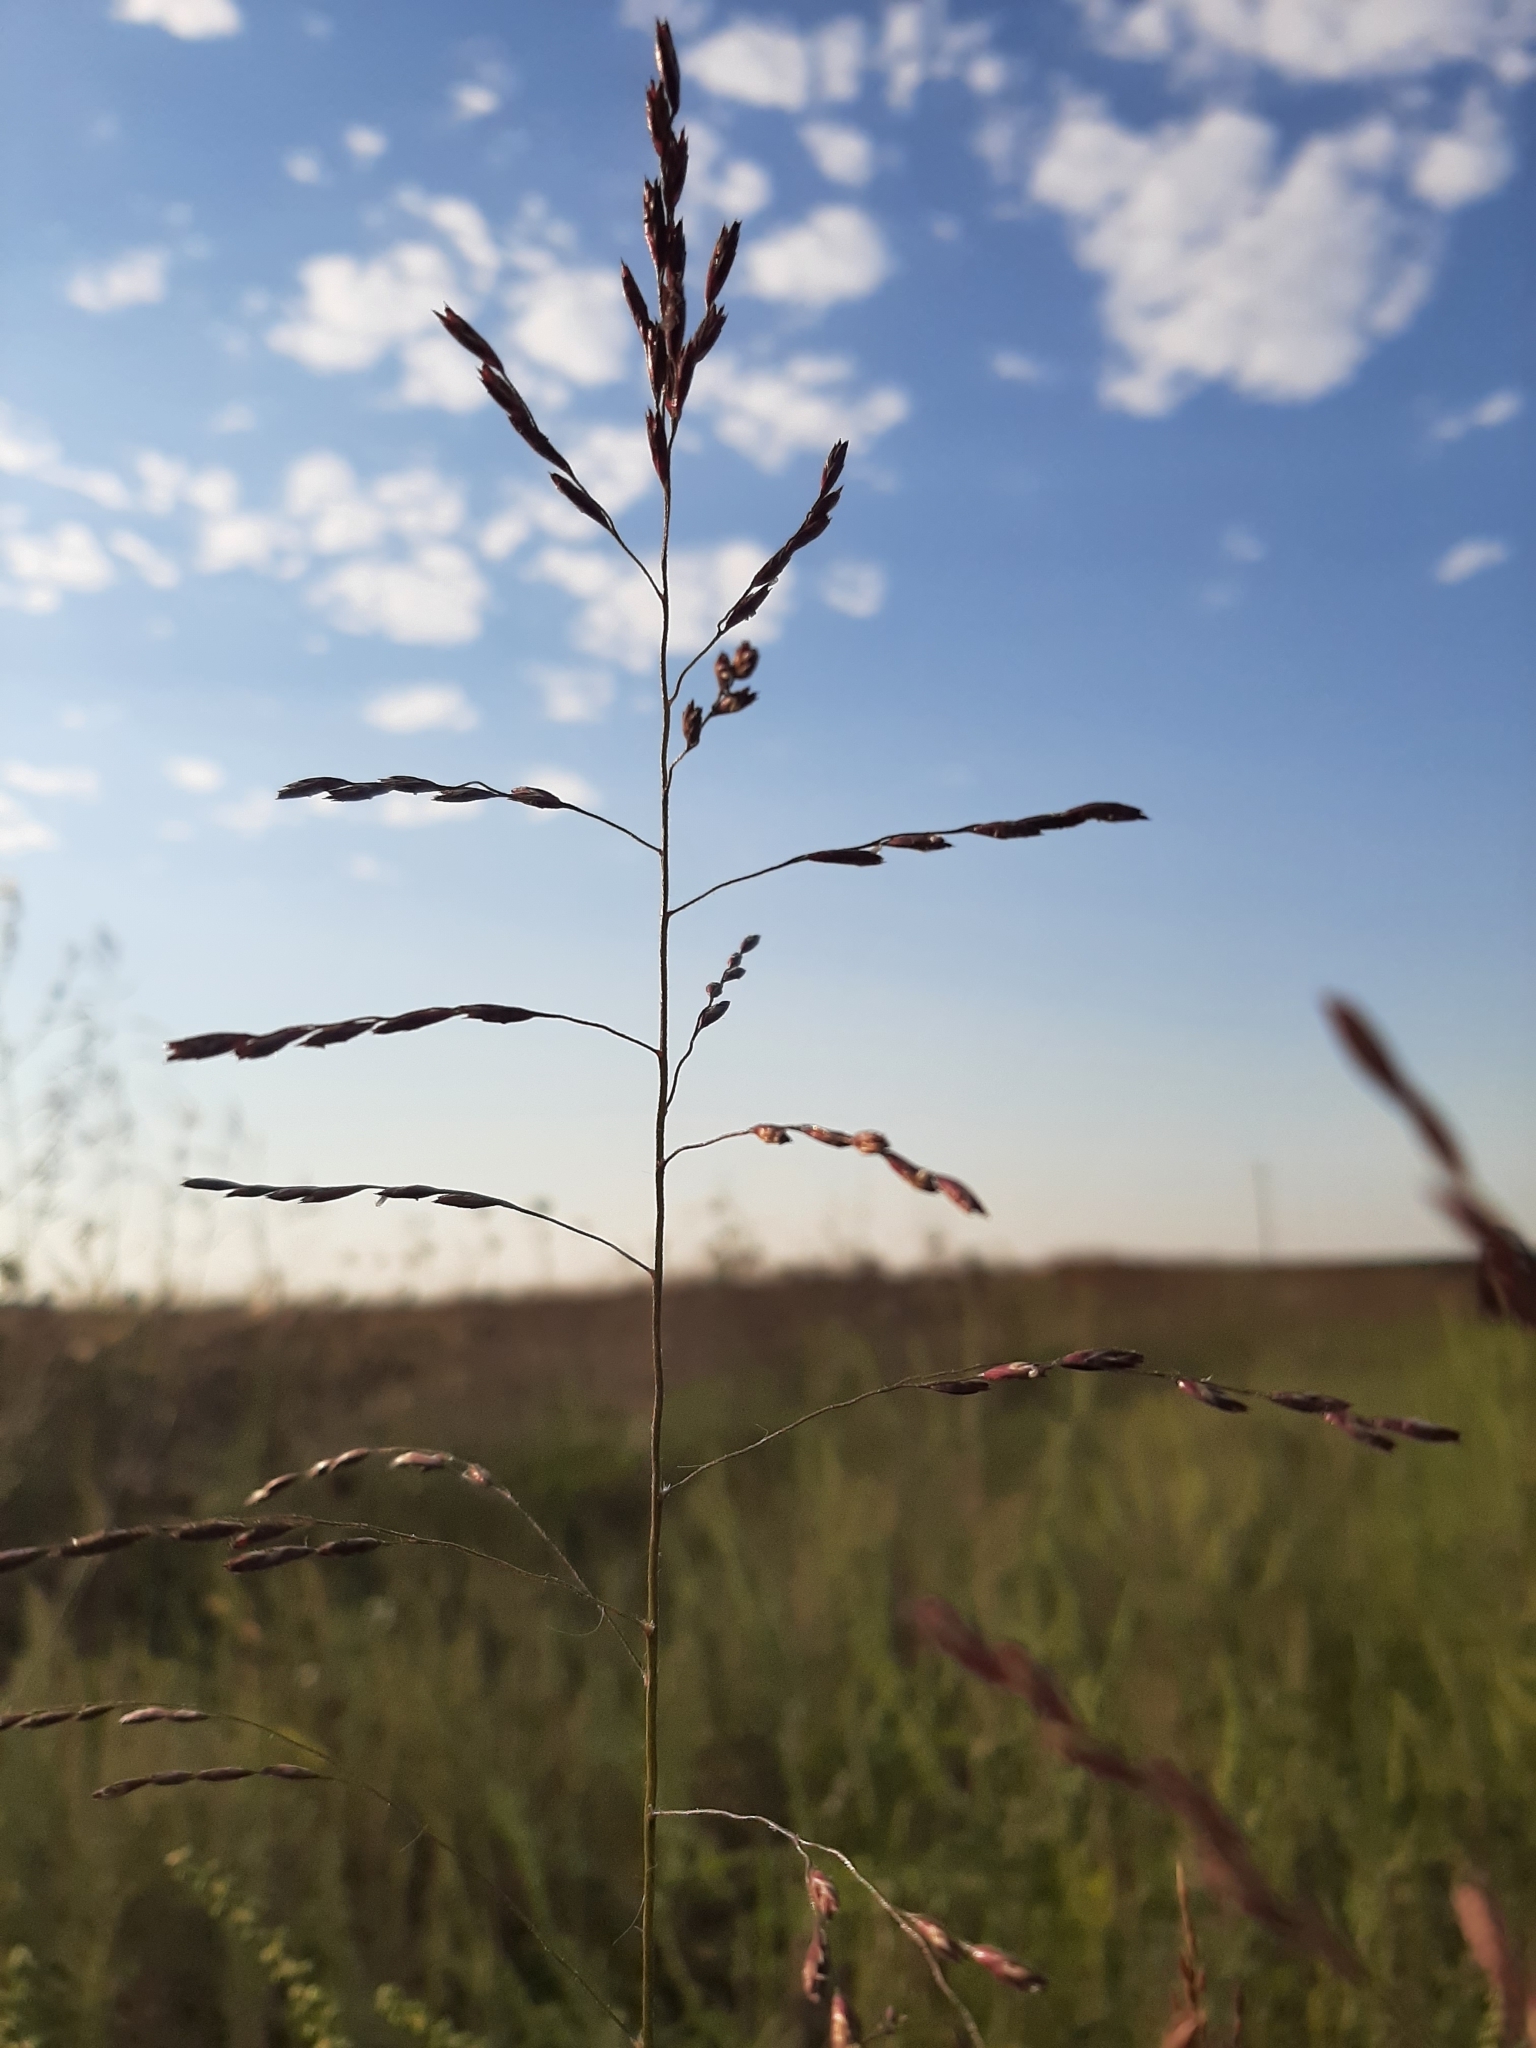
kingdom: Plantae
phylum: Tracheophyta
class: Liliopsida
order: Poales
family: Poaceae
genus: Tridens
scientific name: Tridens flavus
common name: Purpletop
